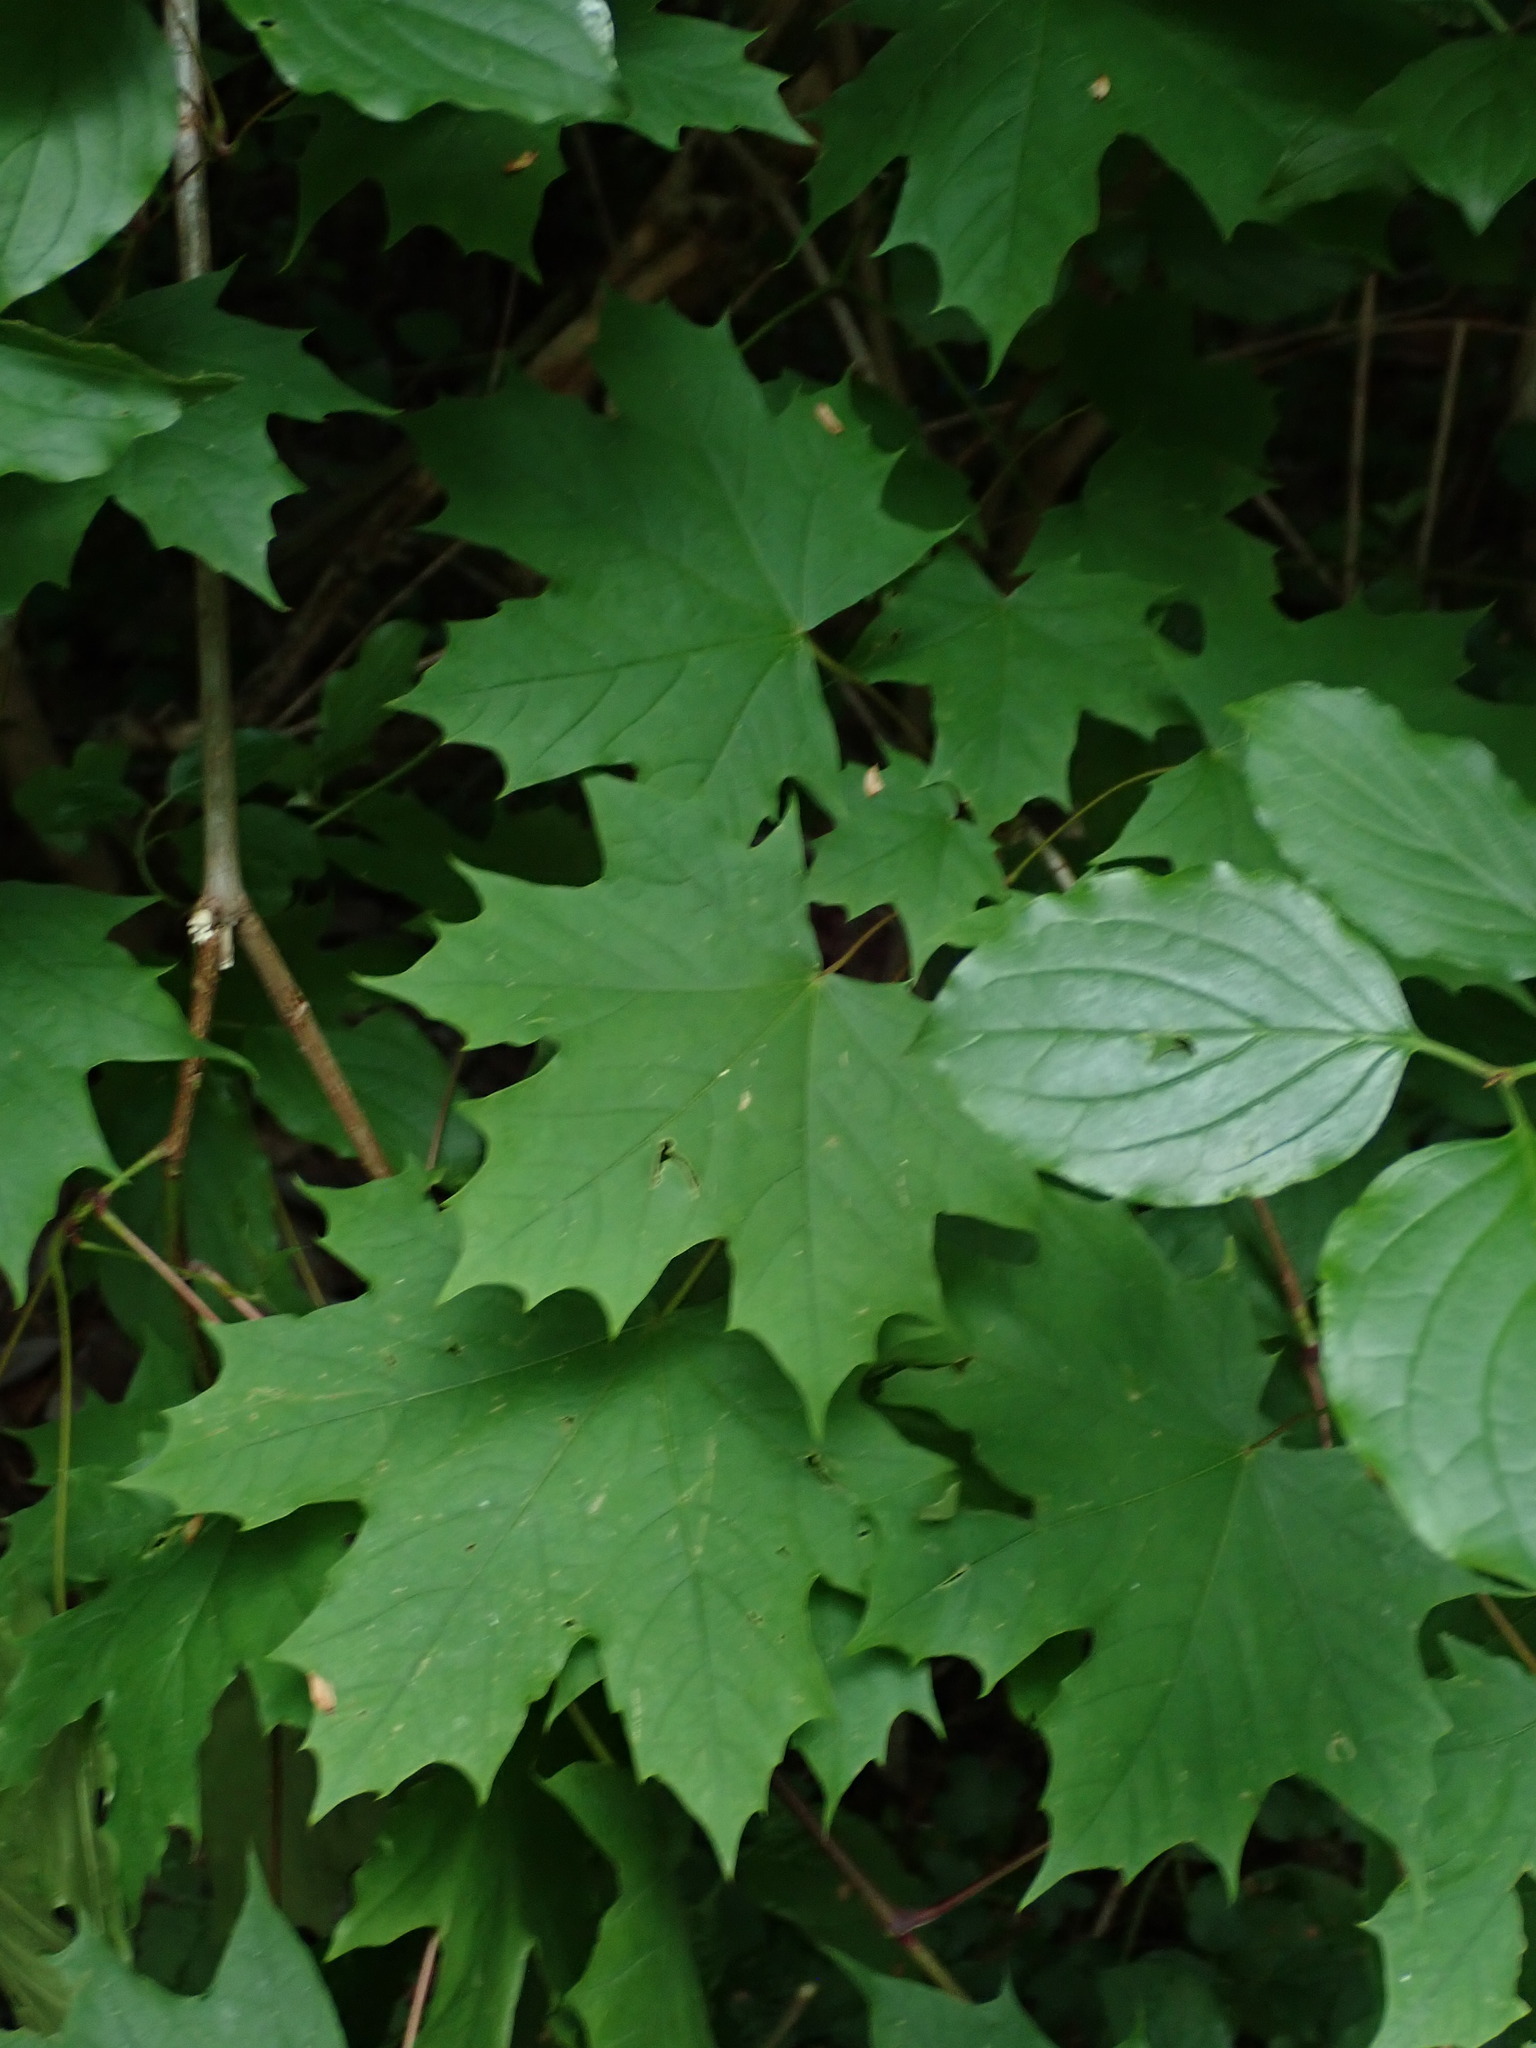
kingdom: Plantae
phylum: Tracheophyta
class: Magnoliopsida
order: Sapindales
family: Sapindaceae
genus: Acer
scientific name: Acer platanoides
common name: Norway maple
